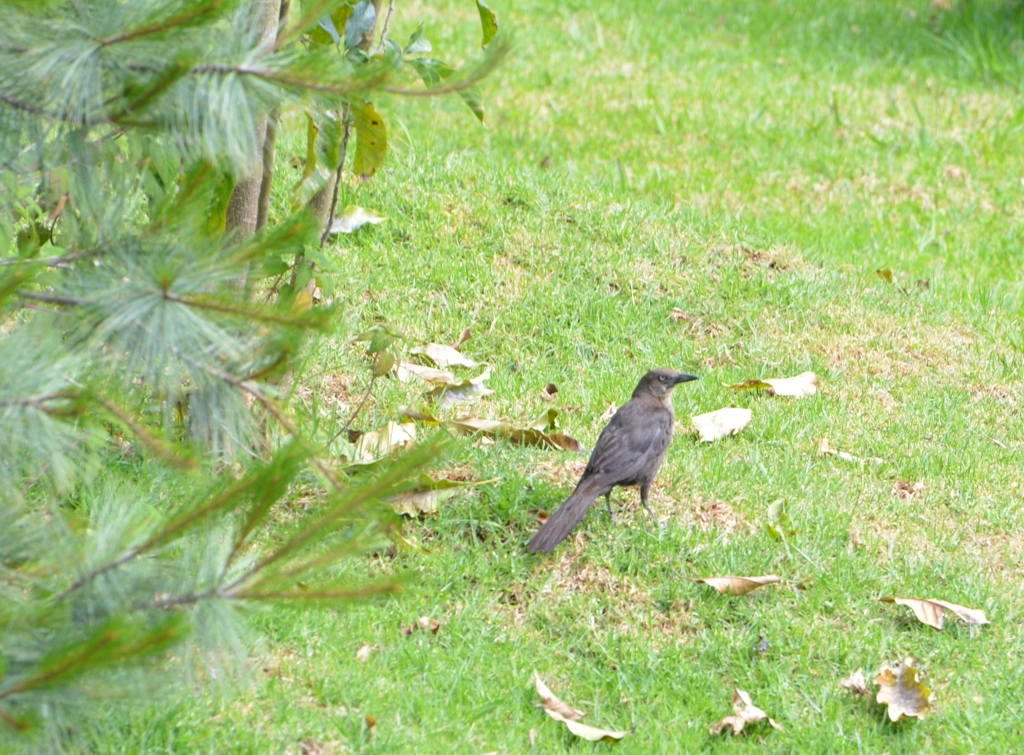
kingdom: Animalia
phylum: Chordata
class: Aves
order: Passeriformes
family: Icteridae
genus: Quiscalus
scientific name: Quiscalus mexicanus
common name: Great-tailed grackle
